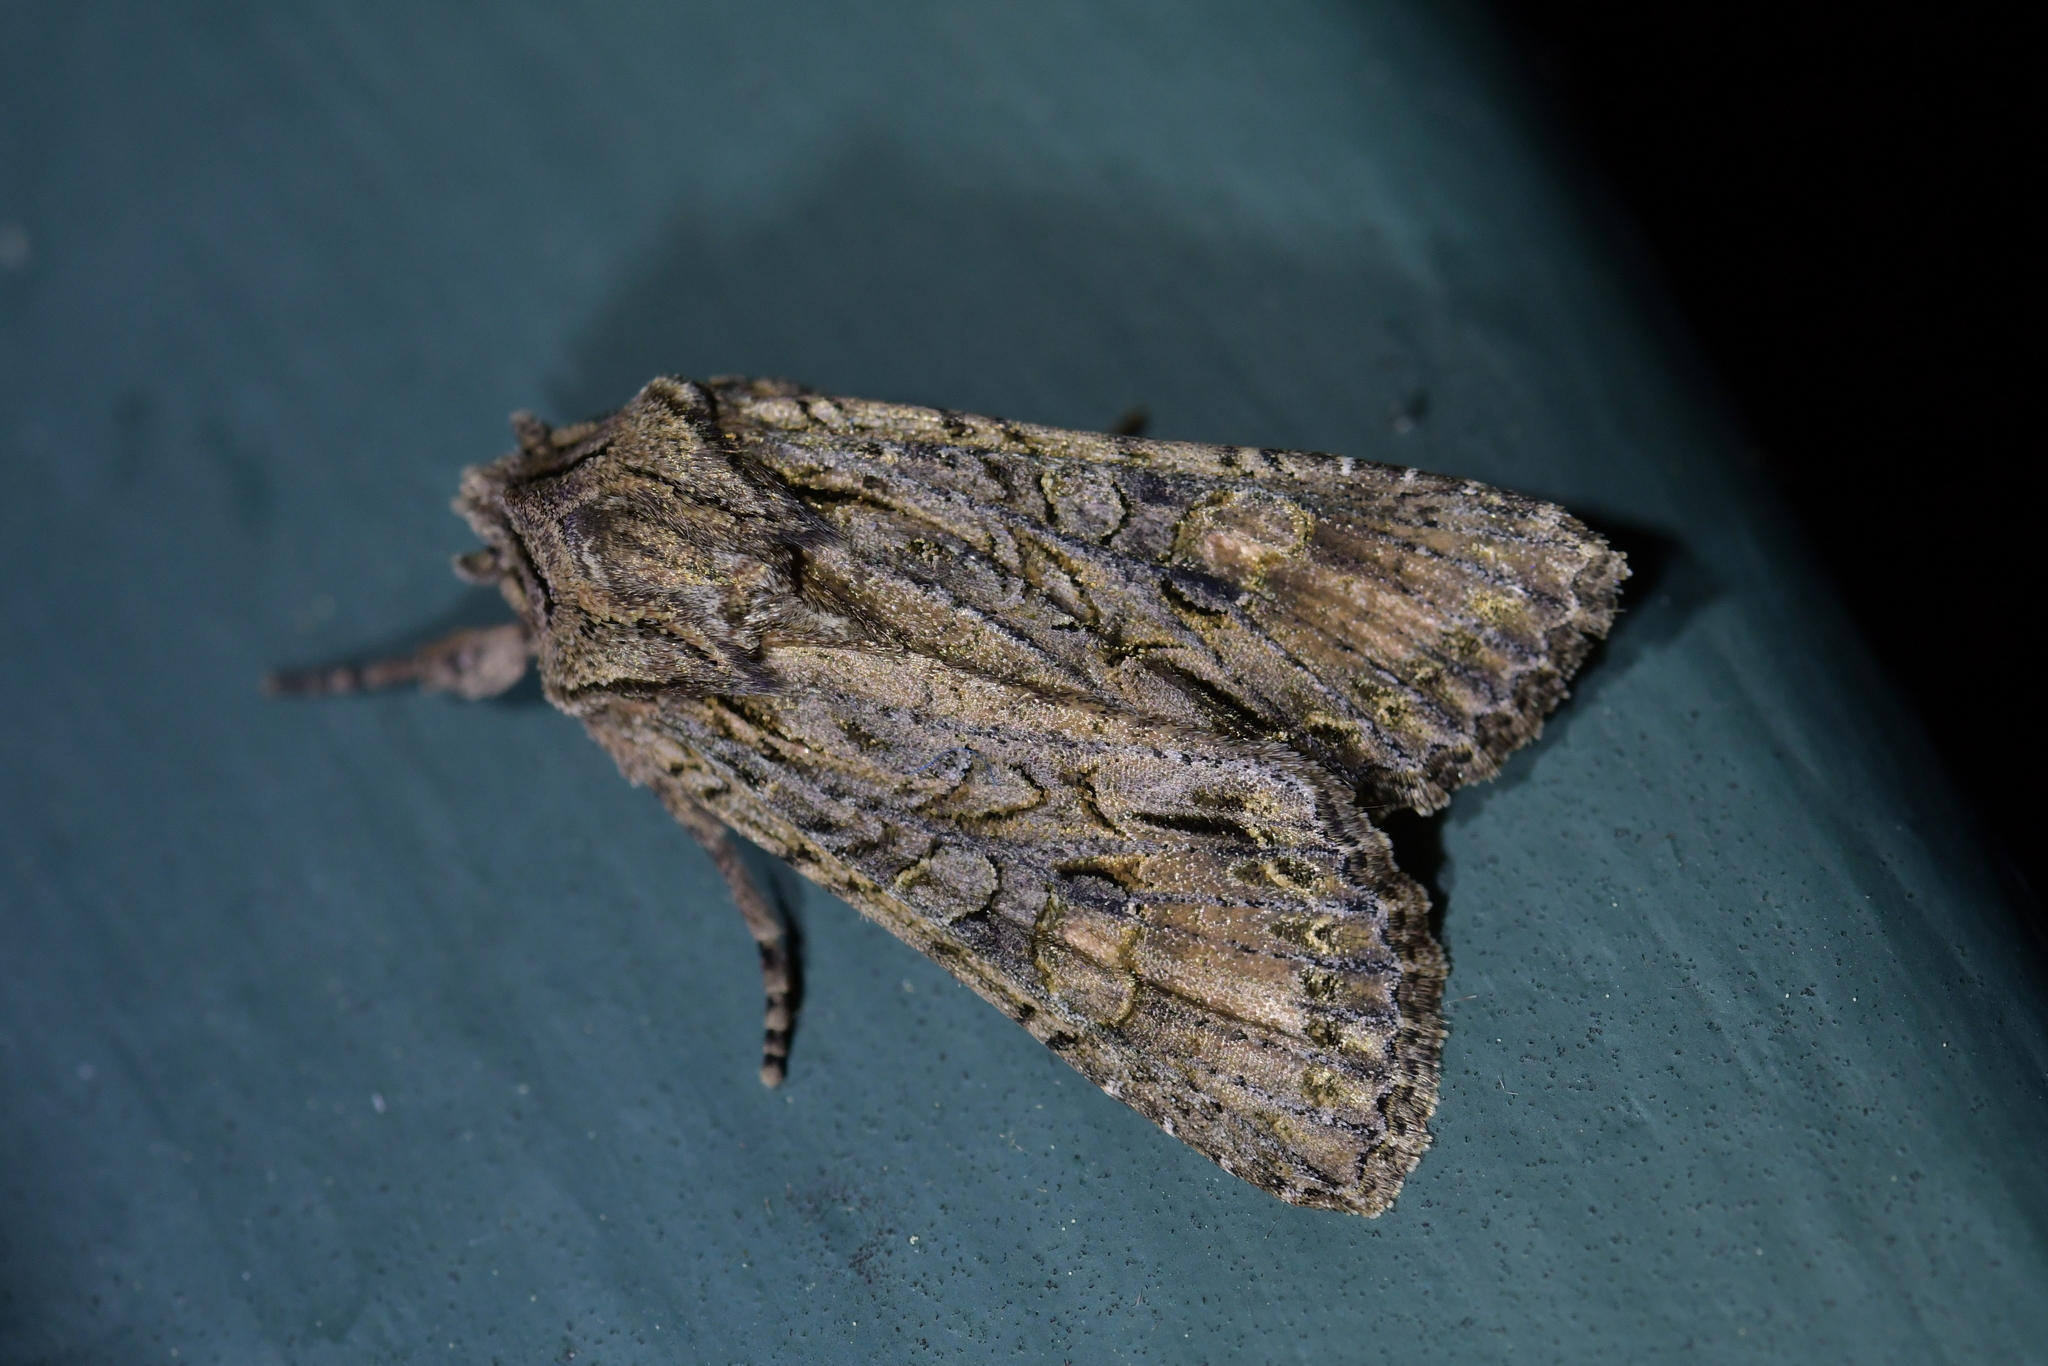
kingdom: Animalia
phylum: Arthropoda
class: Insecta
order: Lepidoptera
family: Noctuidae
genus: Ichneutica
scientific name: Ichneutica mutans
